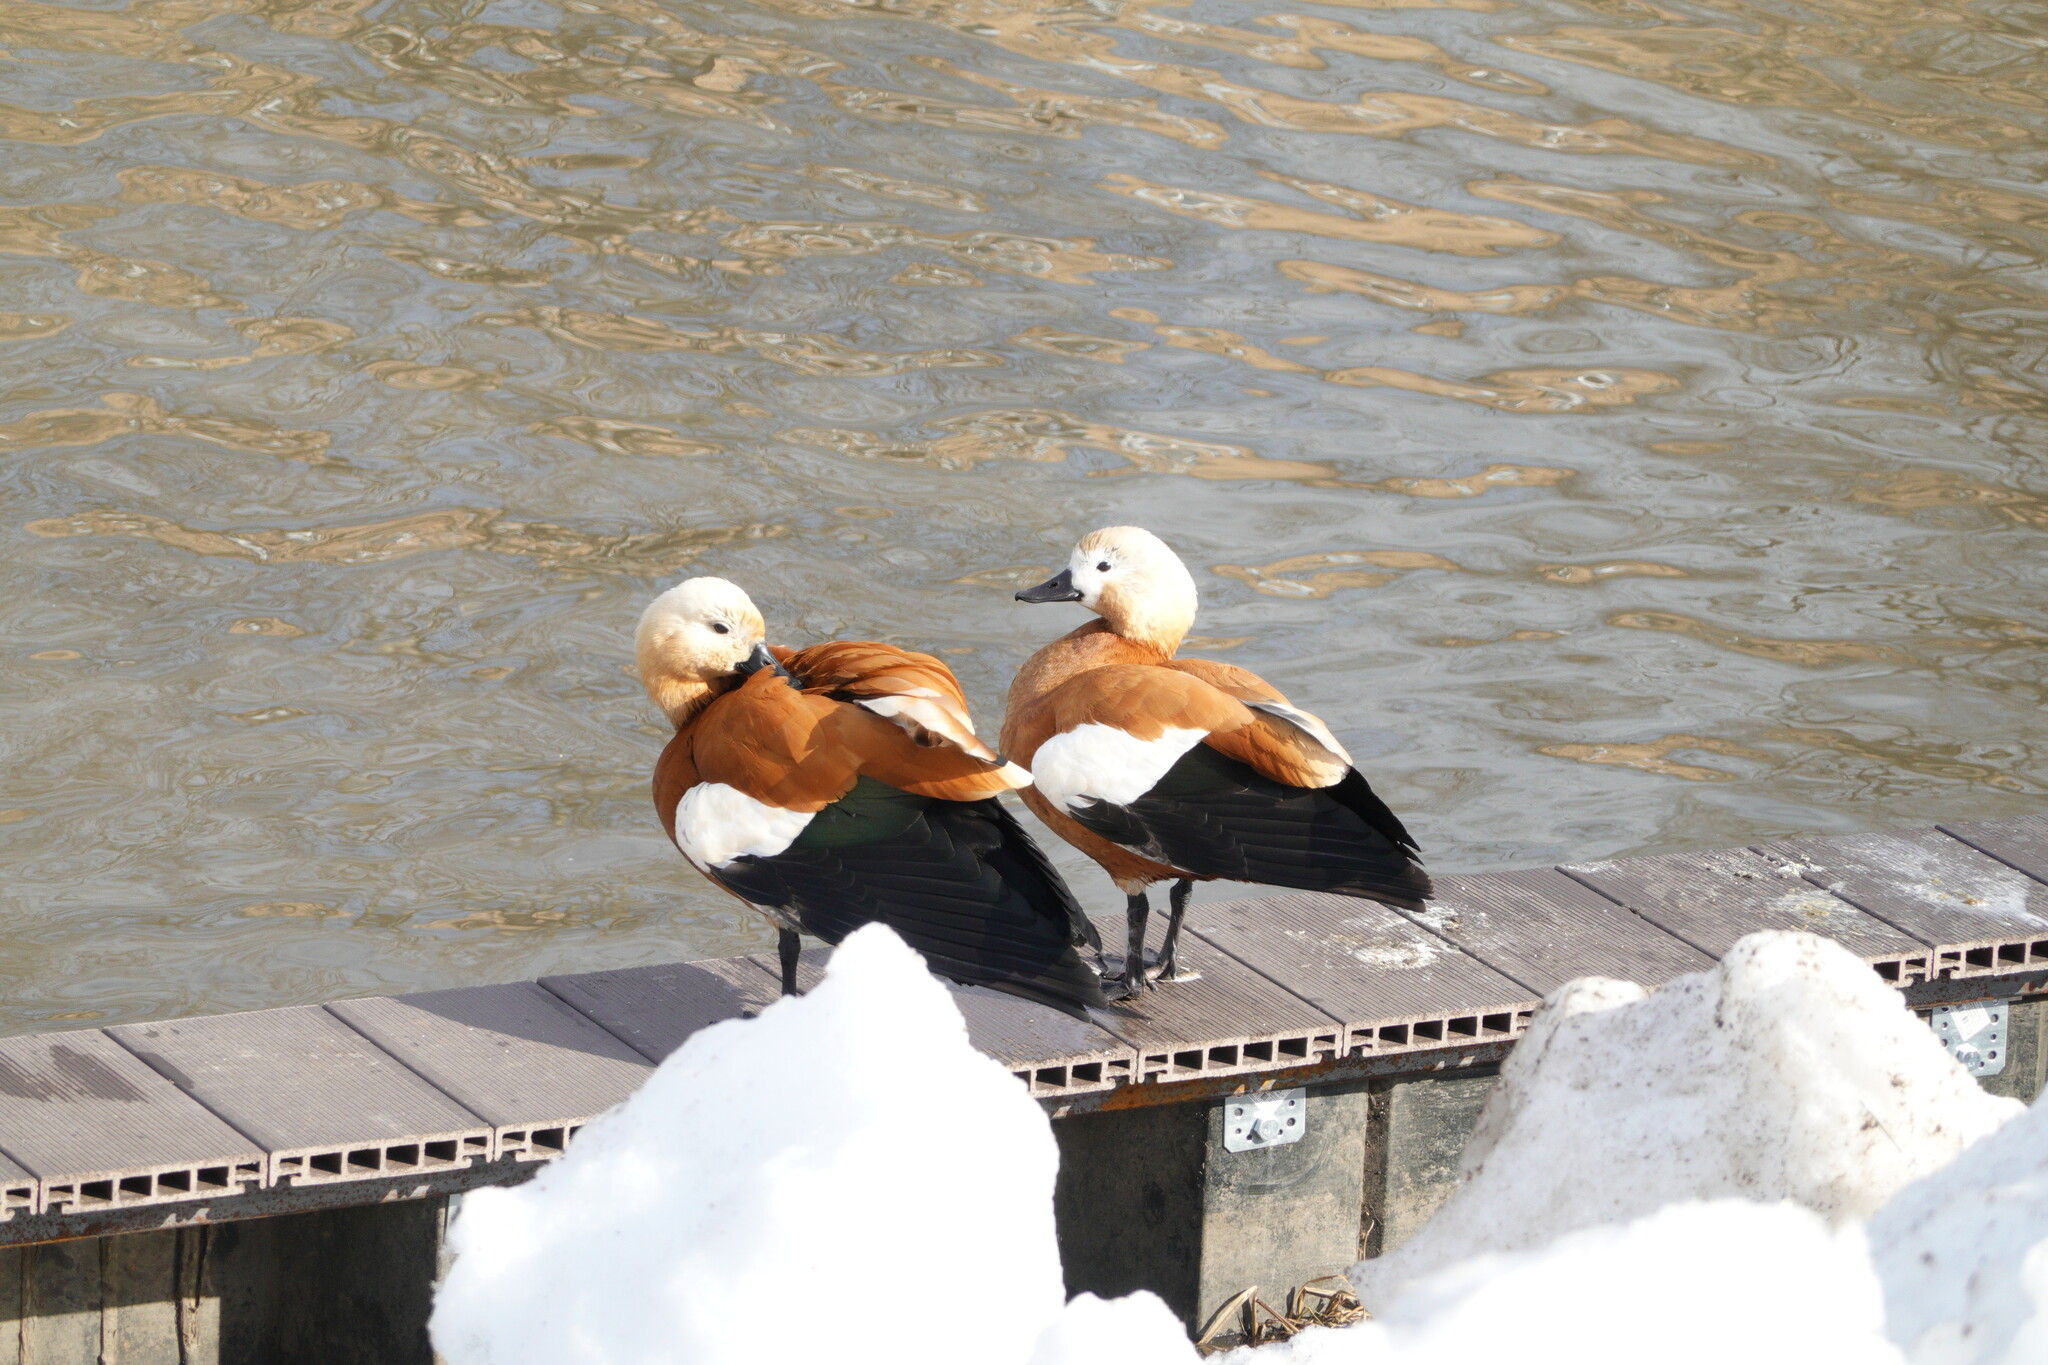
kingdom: Animalia
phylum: Chordata
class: Aves
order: Anseriformes
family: Anatidae
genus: Tadorna
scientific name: Tadorna ferruginea
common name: Ruddy shelduck
